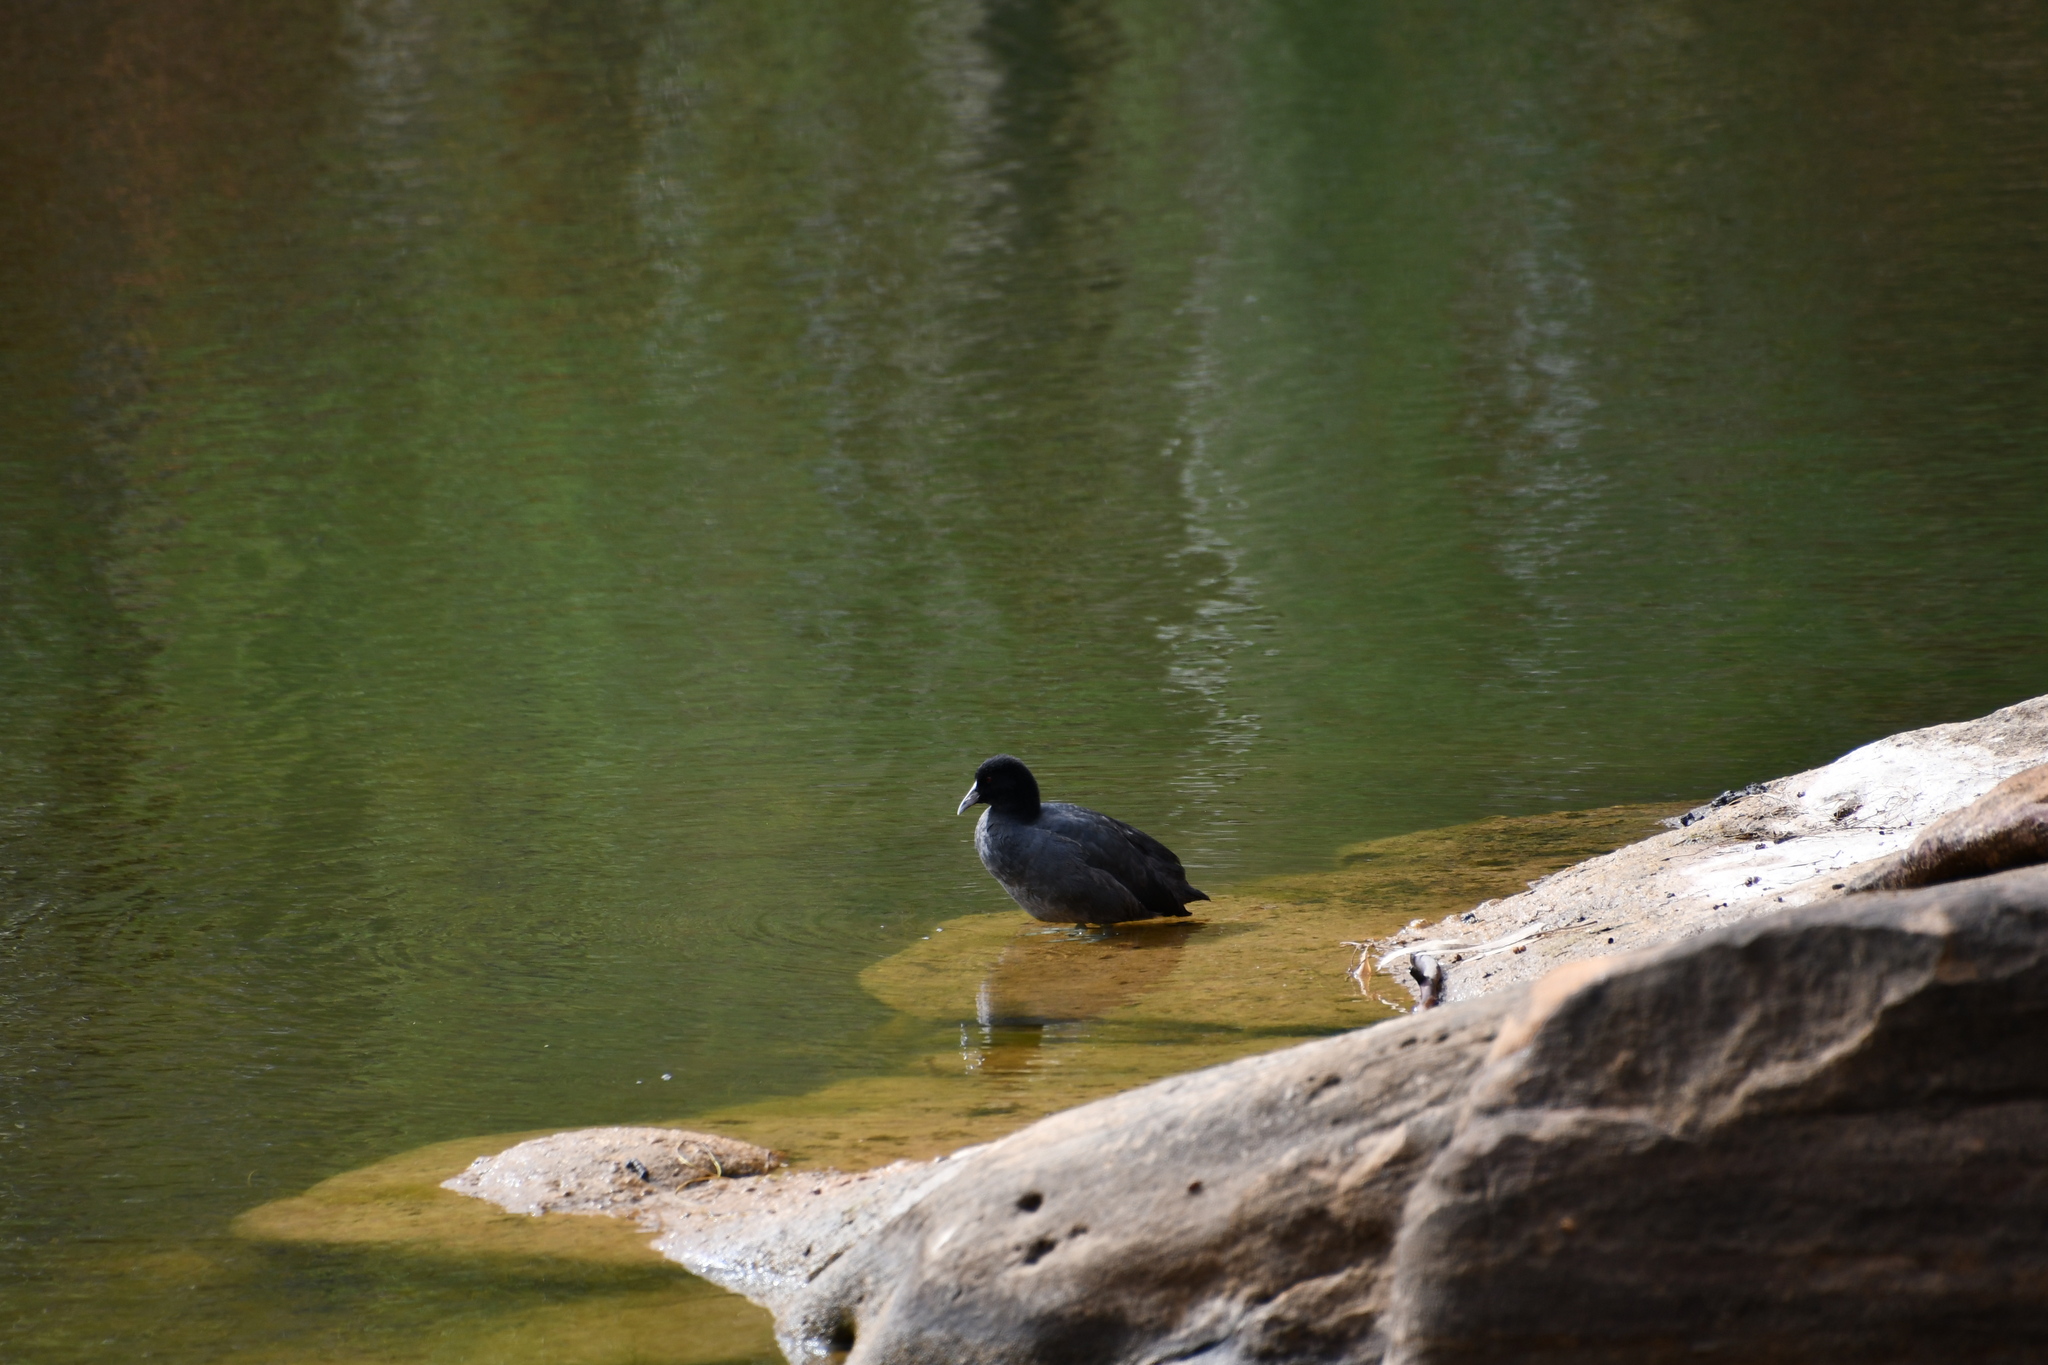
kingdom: Animalia
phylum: Chordata
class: Aves
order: Gruiformes
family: Rallidae
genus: Fulica
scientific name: Fulica atra
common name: Eurasian coot
